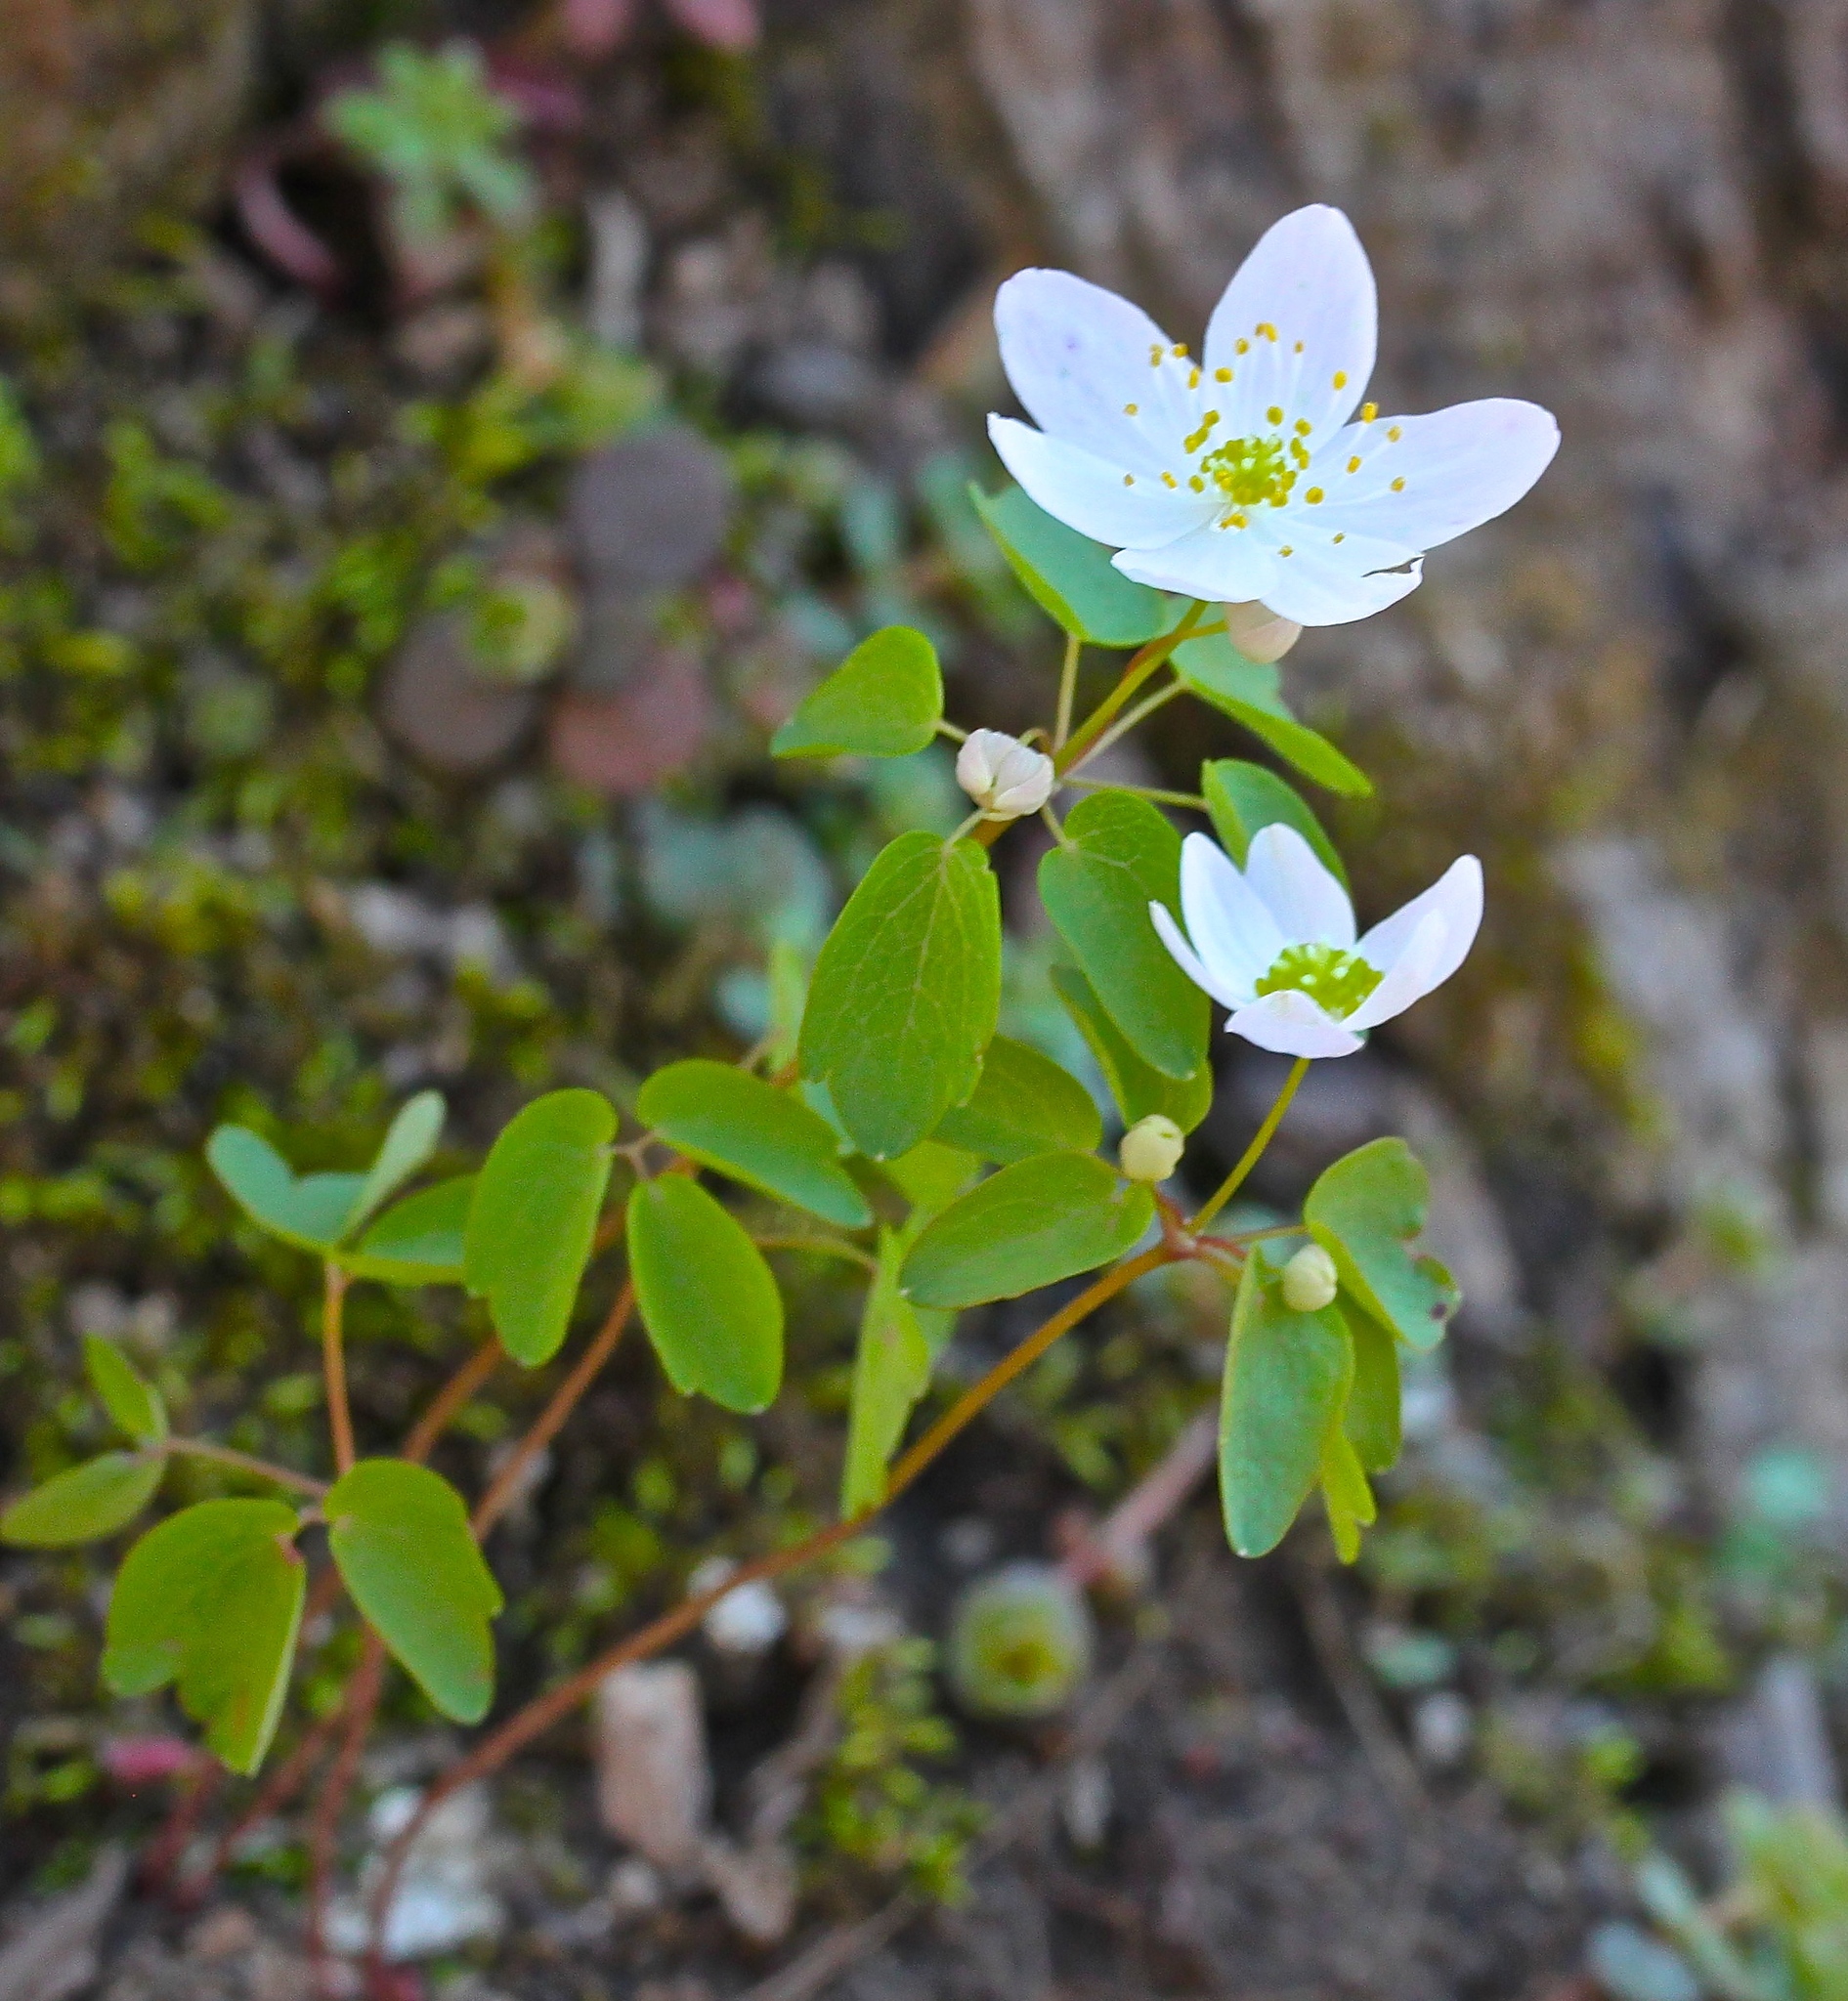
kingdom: Plantae
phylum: Tracheophyta
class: Magnoliopsida
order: Ranunculales
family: Ranunculaceae
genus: Thalictrum
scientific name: Thalictrum thalictroides
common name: Rue-anemone
